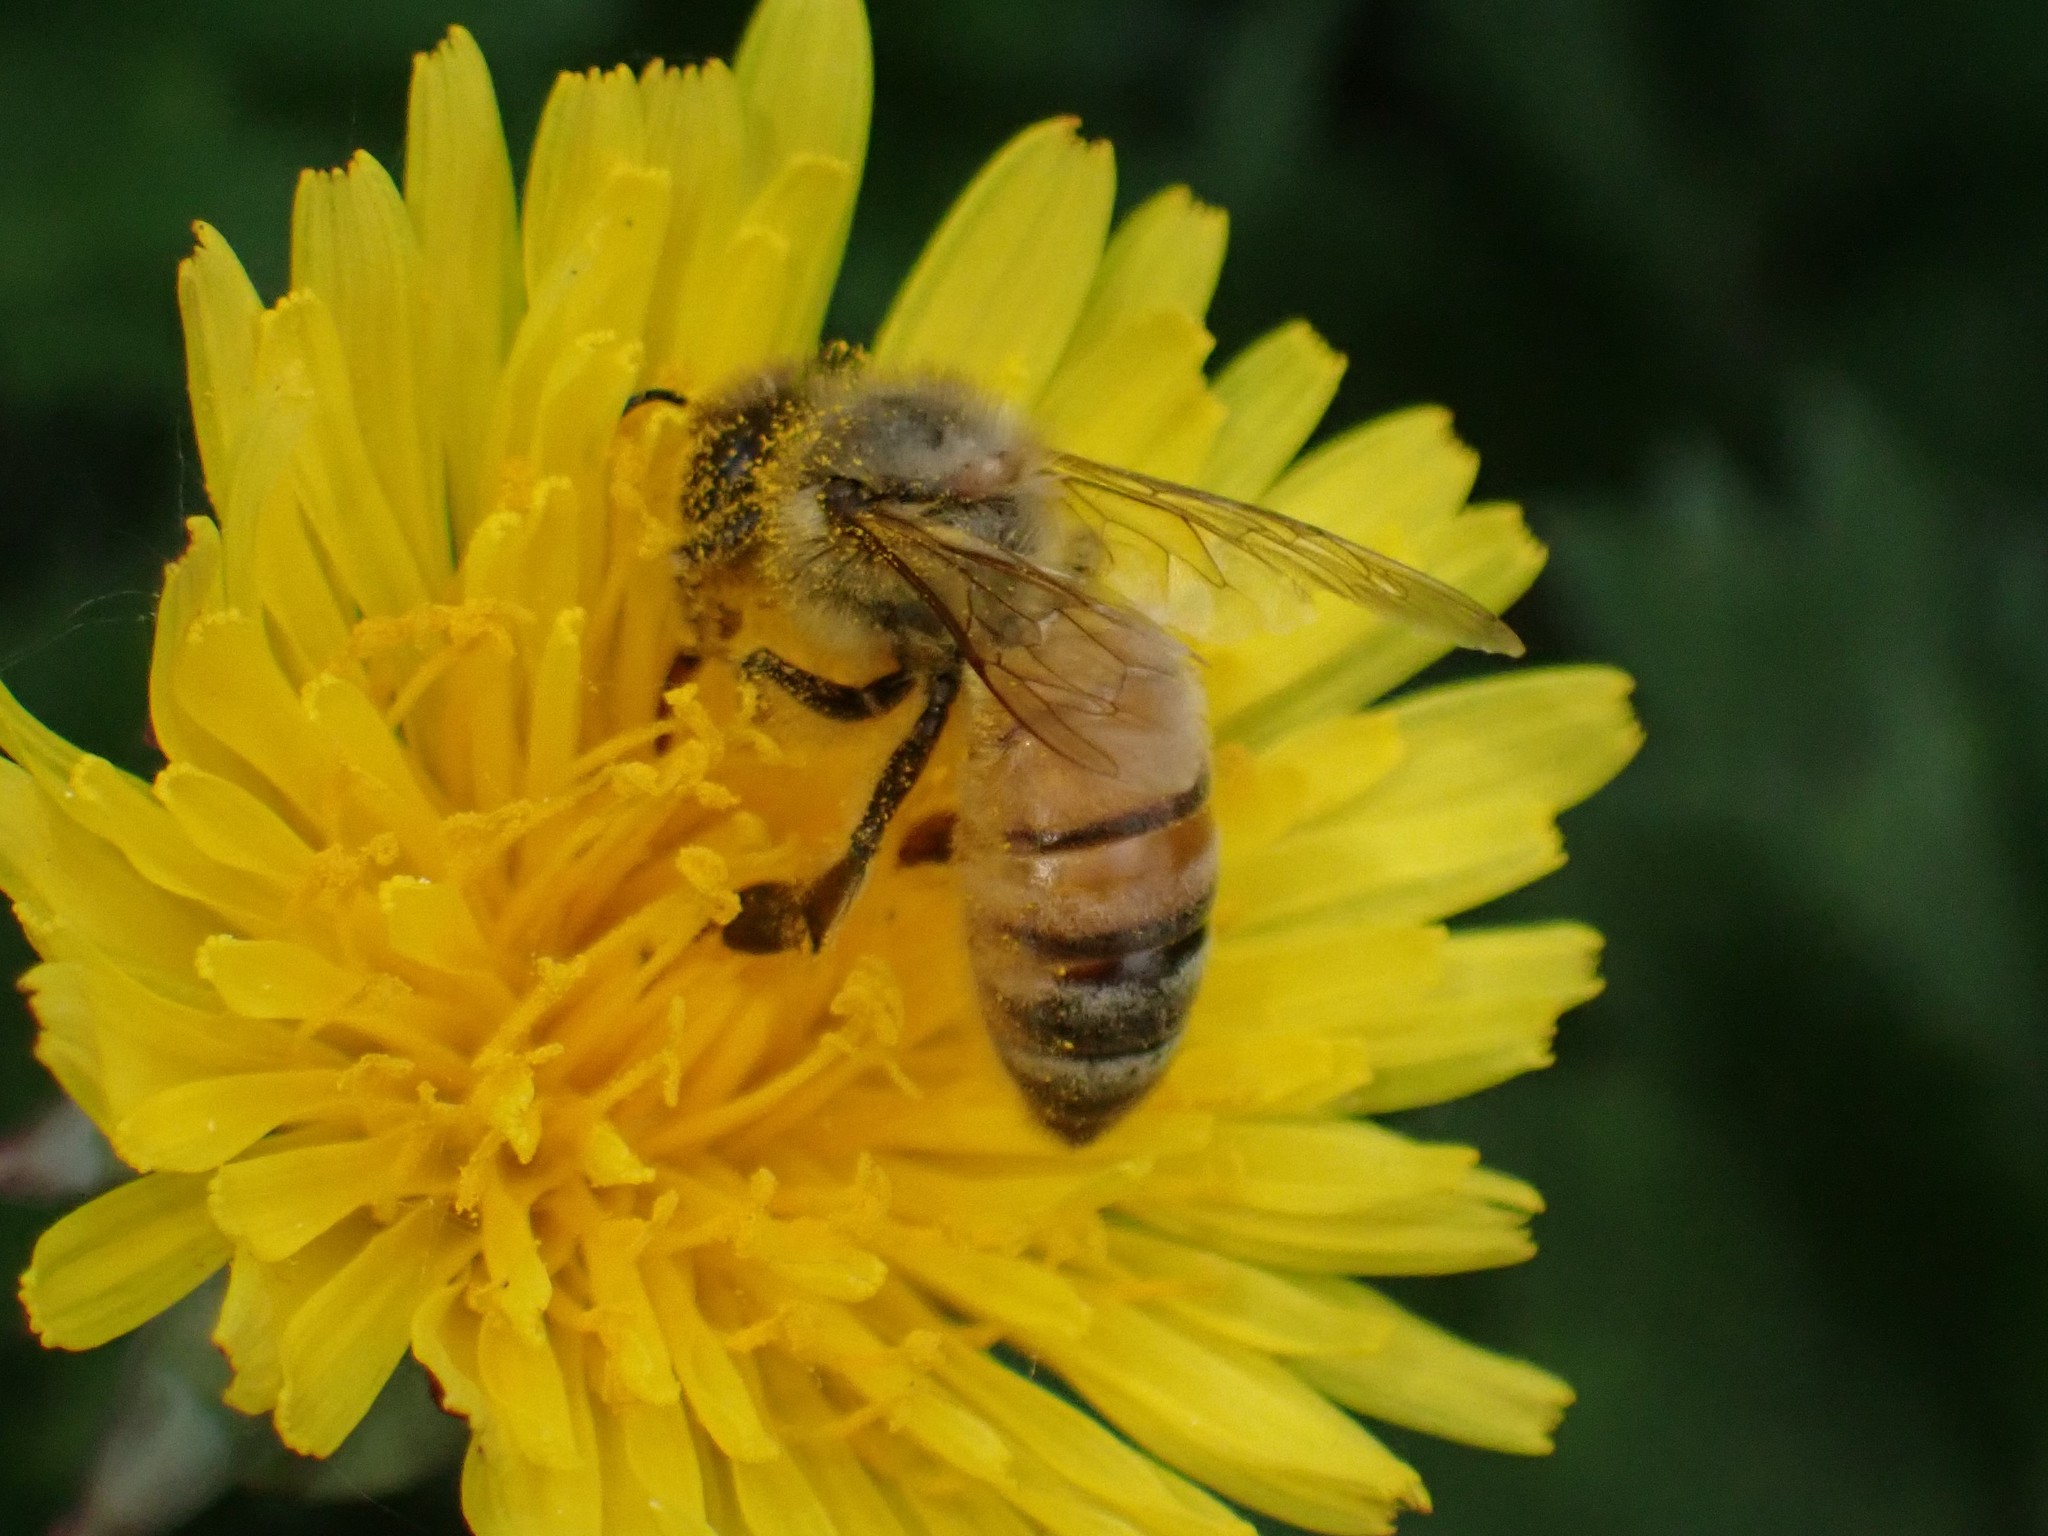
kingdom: Animalia
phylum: Arthropoda
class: Insecta
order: Hymenoptera
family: Apidae
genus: Apis
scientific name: Apis mellifera
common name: Honey bee
